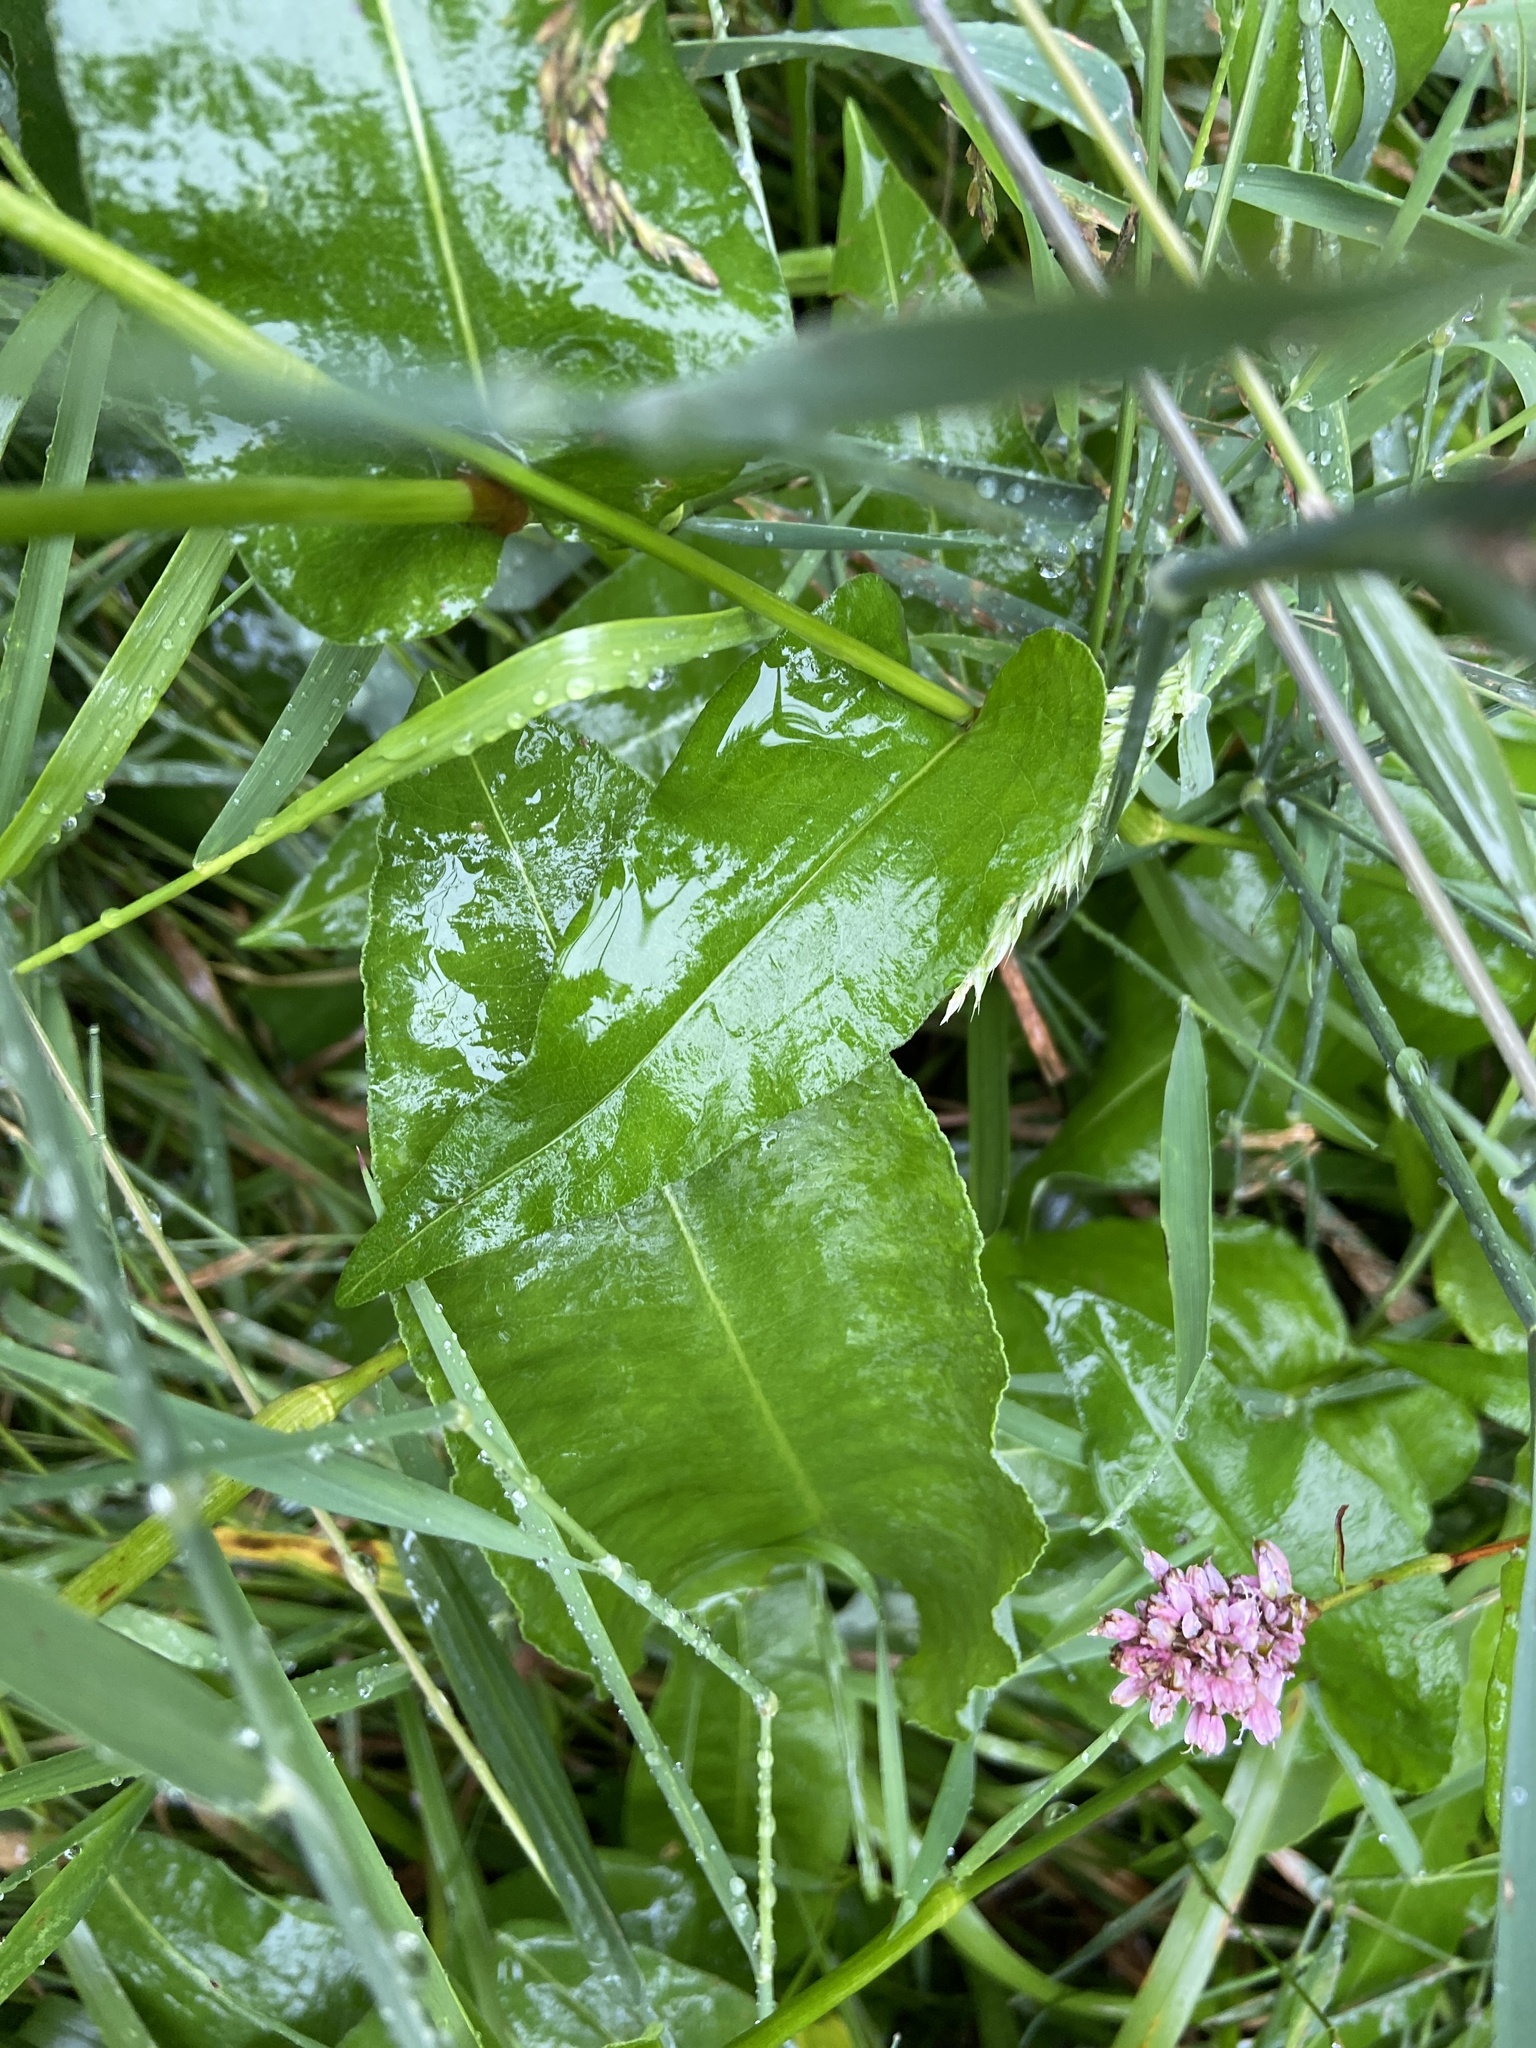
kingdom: Plantae
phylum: Tracheophyta
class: Magnoliopsida
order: Caryophyllales
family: Polygonaceae
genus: Bistorta
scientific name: Bistorta officinalis
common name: Common bistort
